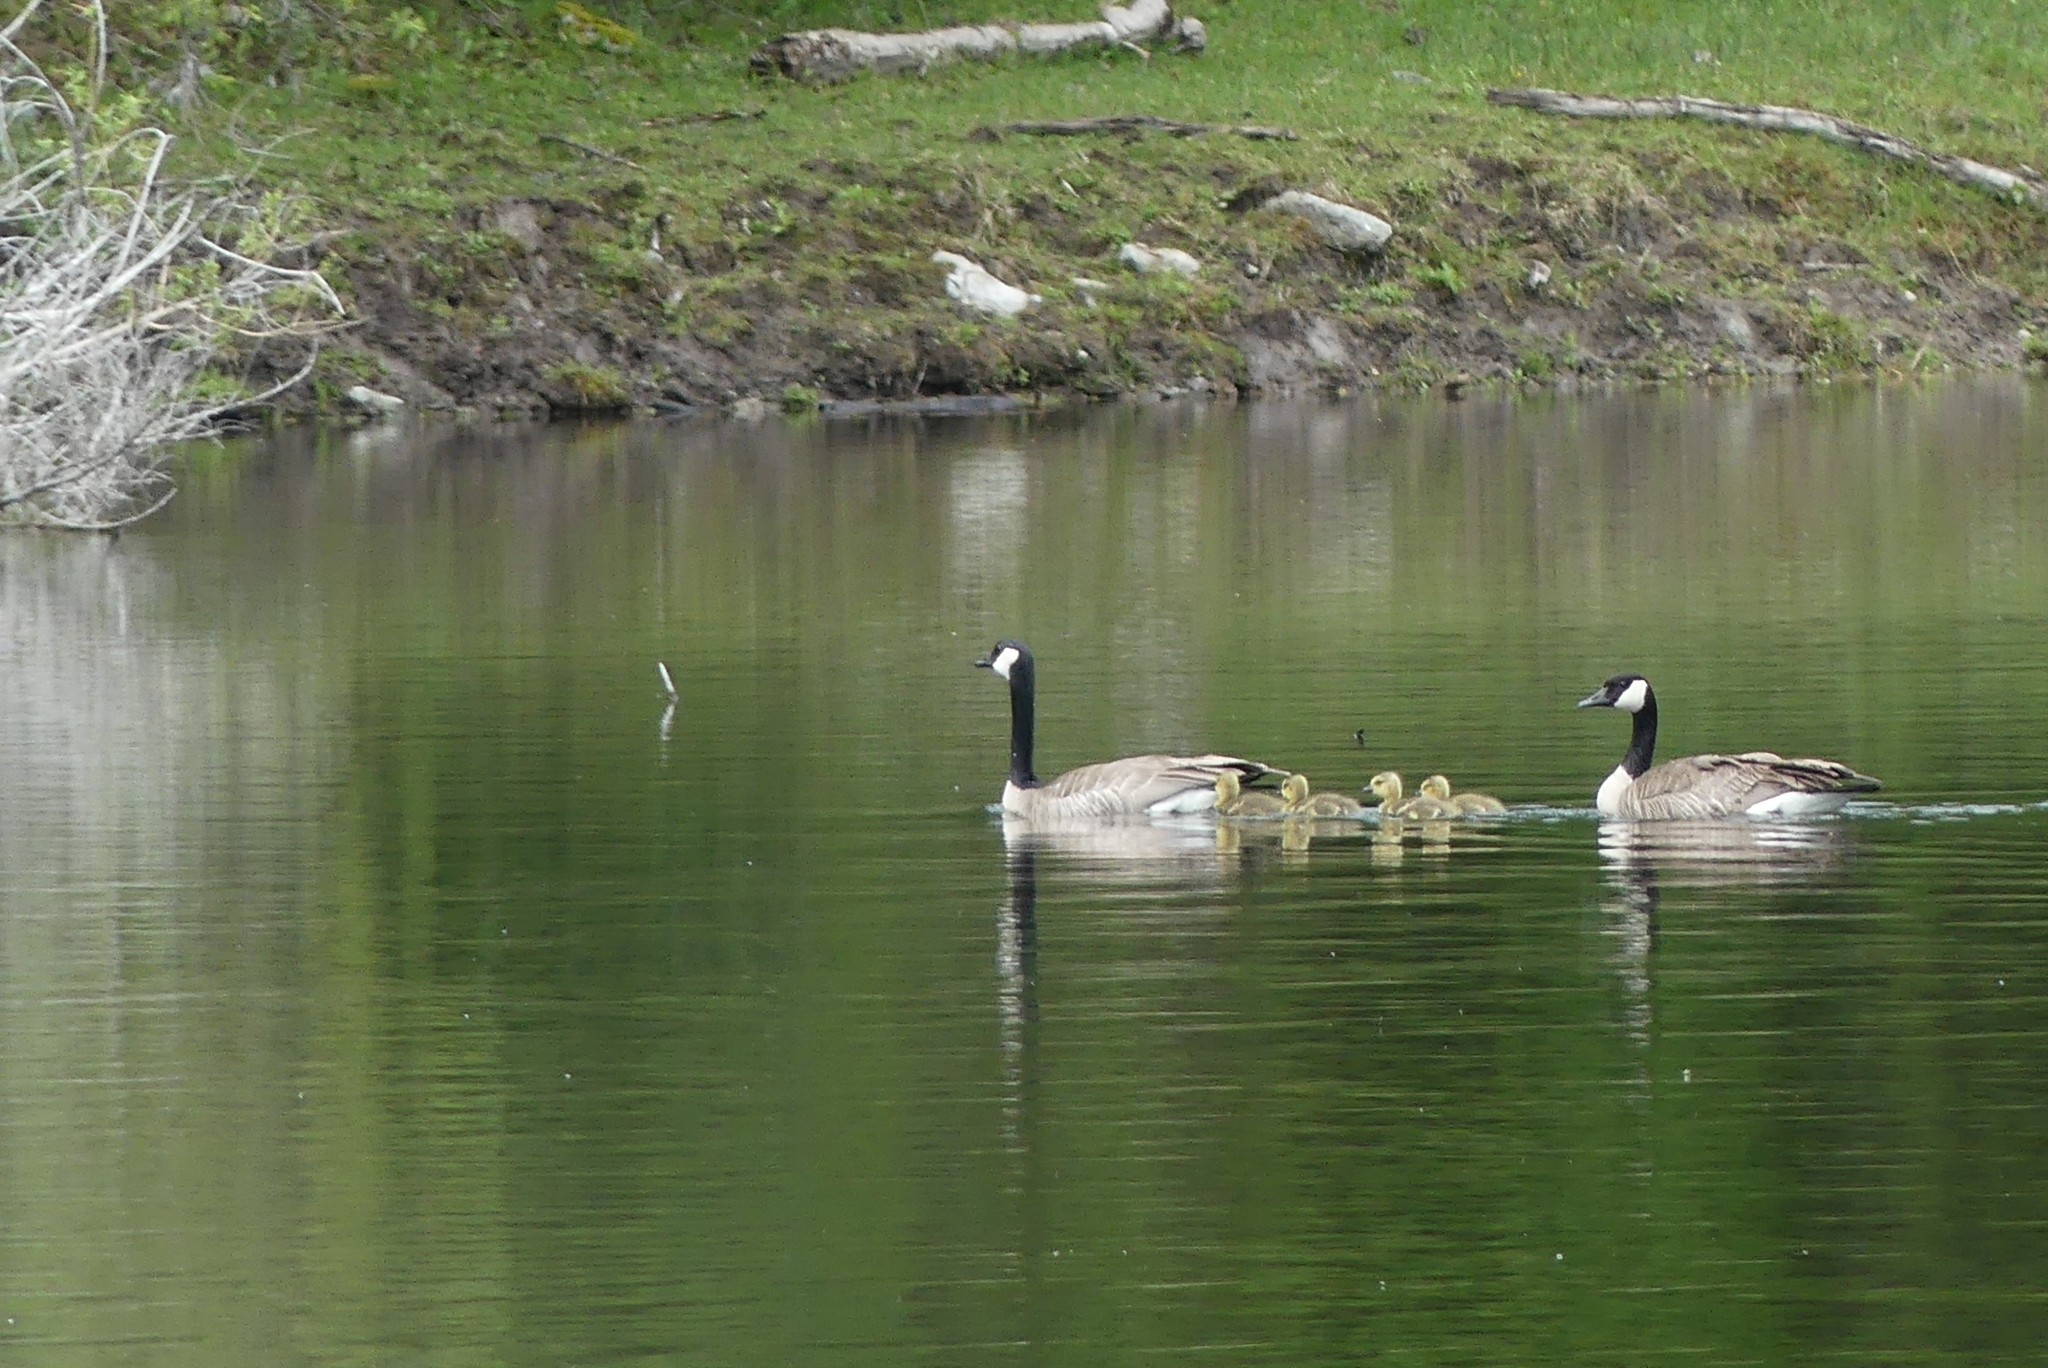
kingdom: Animalia
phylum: Chordata
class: Aves
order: Anseriformes
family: Anatidae
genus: Branta
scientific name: Branta canadensis
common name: Canada goose
